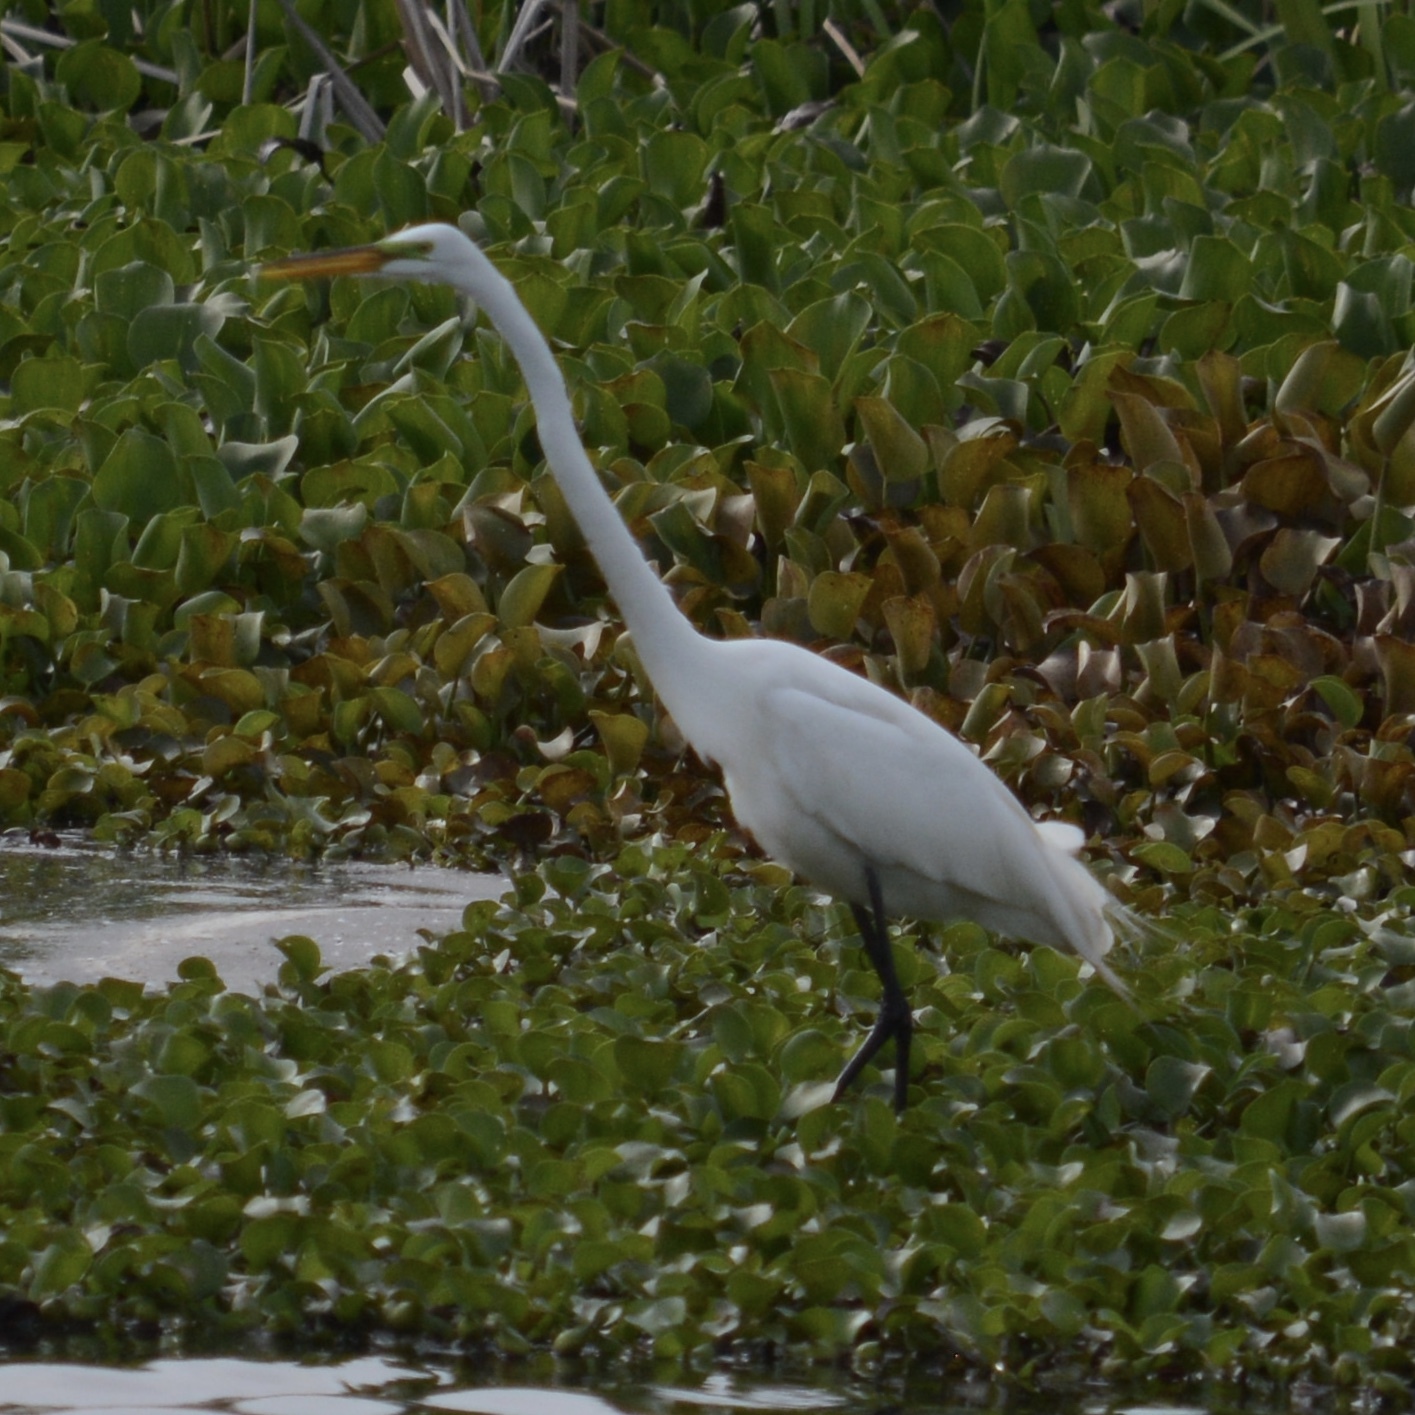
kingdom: Animalia
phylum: Chordata
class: Aves
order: Pelecaniformes
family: Ardeidae
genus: Ardea
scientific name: Ardea alba
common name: Great egret
